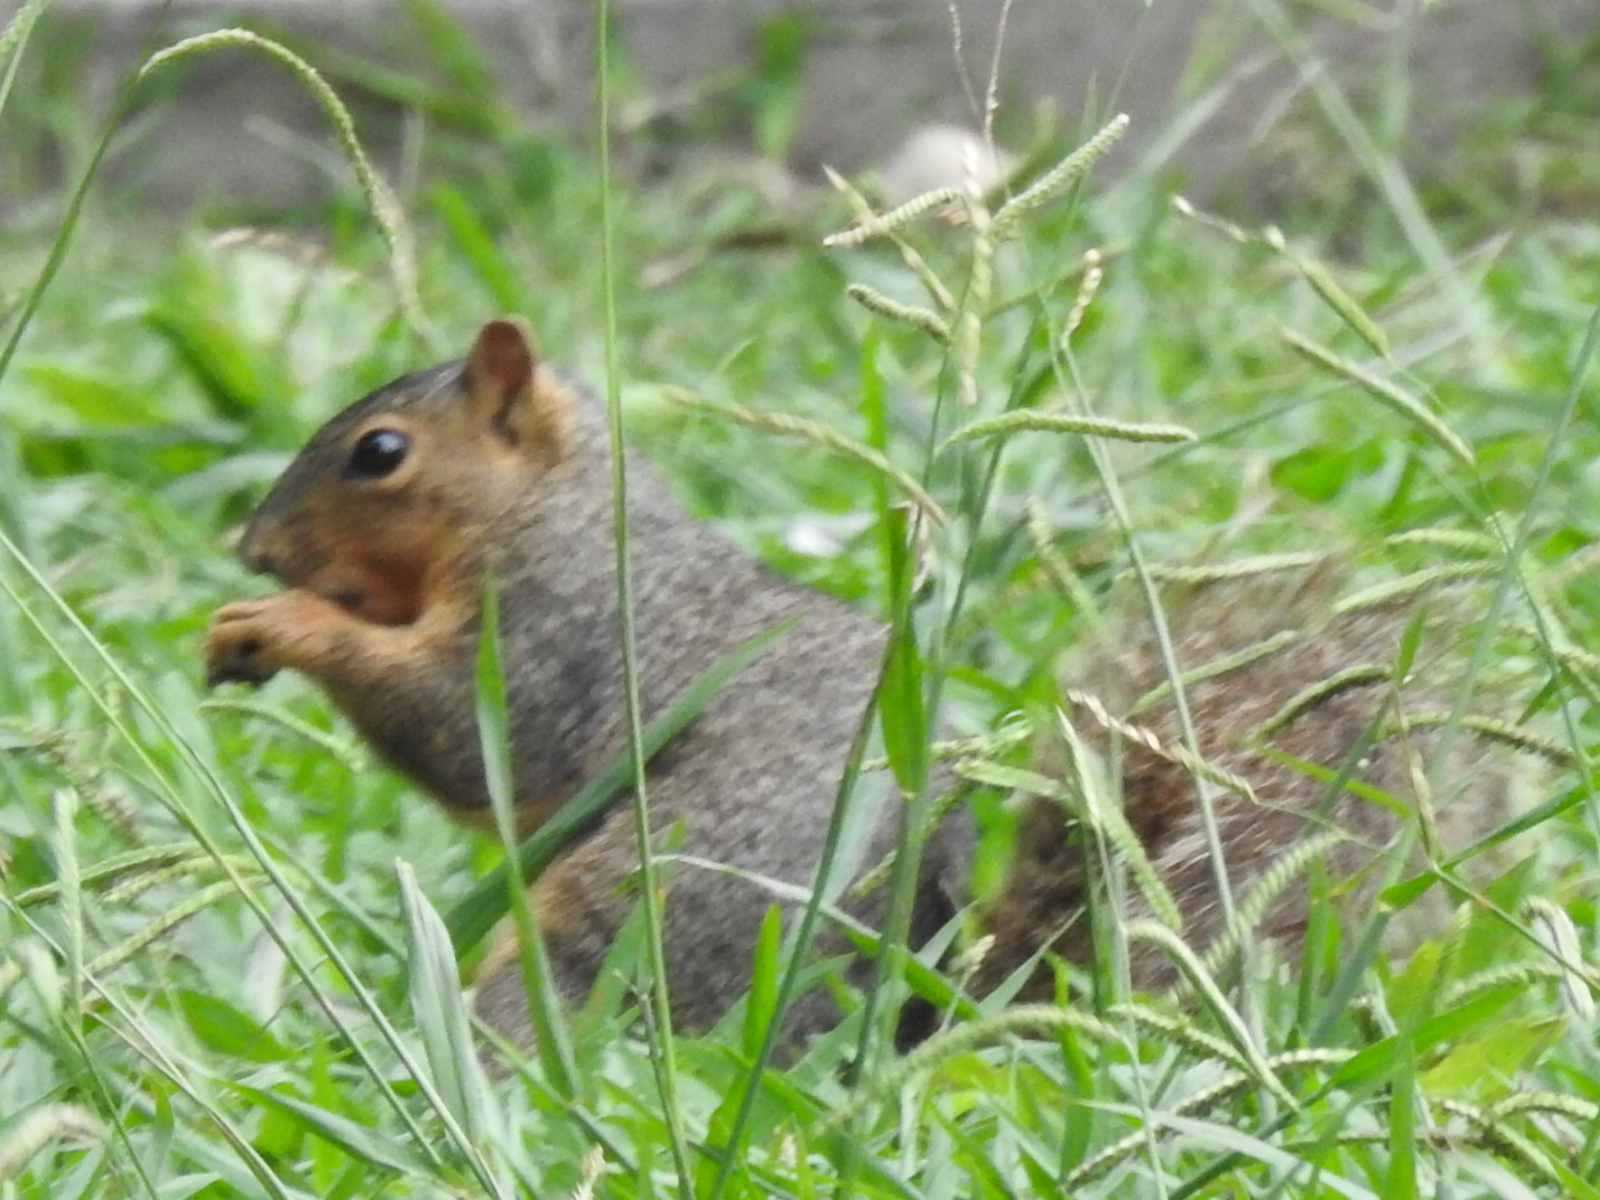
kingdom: Animalia
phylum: Chordata
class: Mammalia
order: Rodentia
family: Sciuridae
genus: Sciurus
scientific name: Sciurus niger
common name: Fox squirrel
